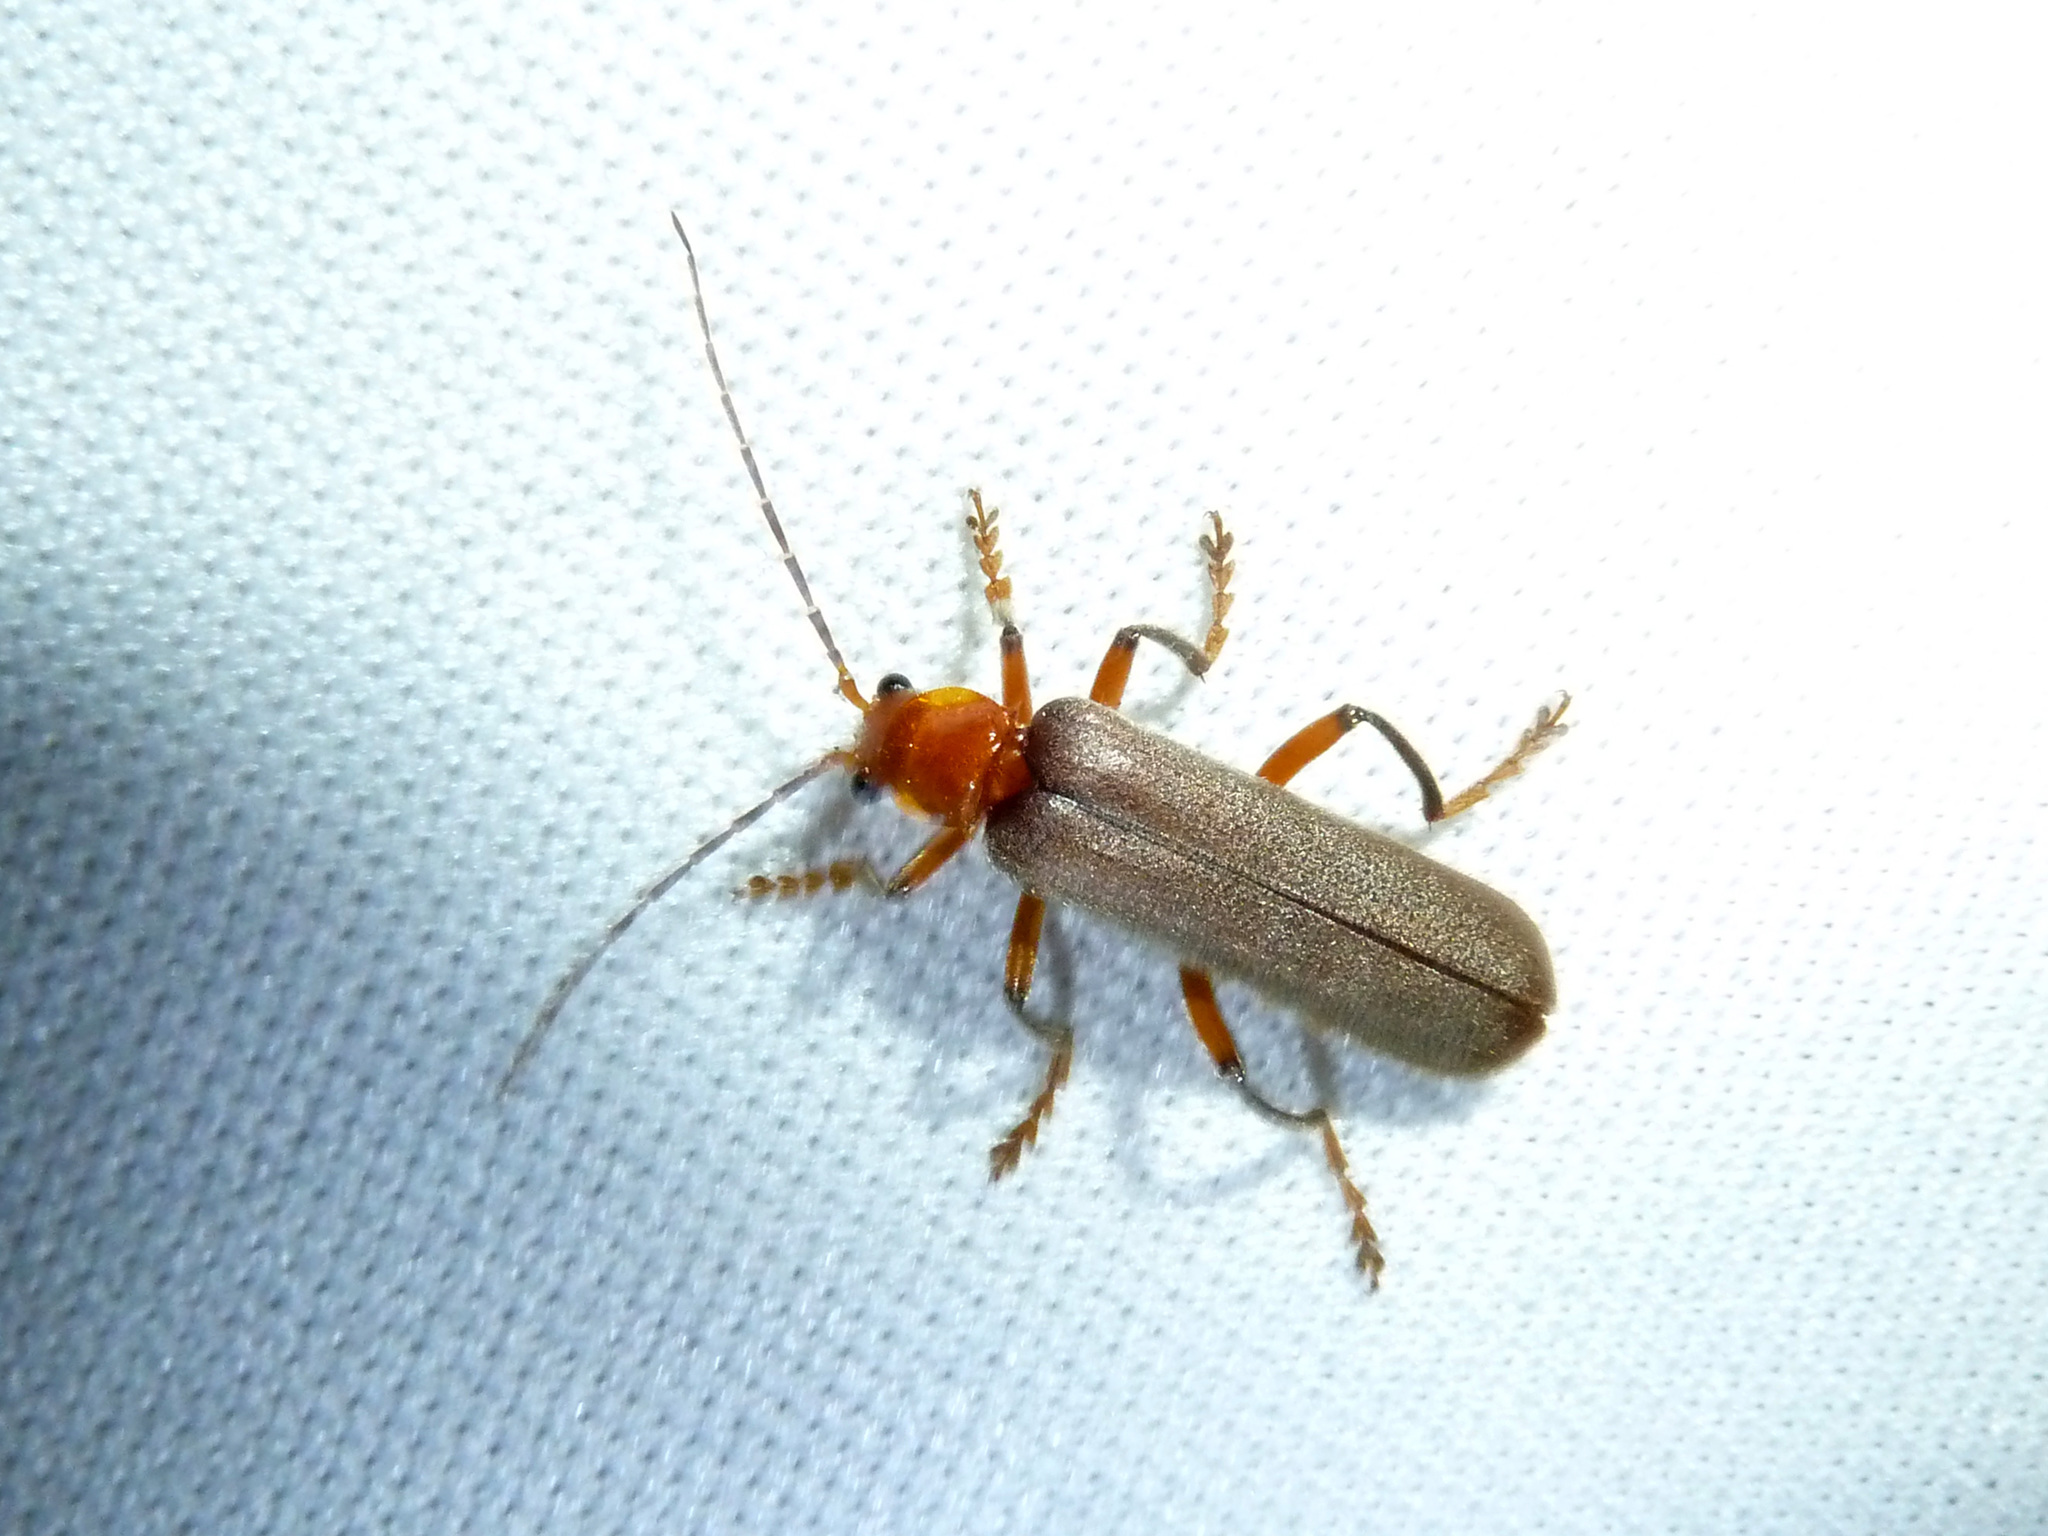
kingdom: Animalia
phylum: Arthropoda
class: Insecta
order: Coleoptera
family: Cantharidae
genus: Pacificanthia
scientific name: Pacificanthia consors
